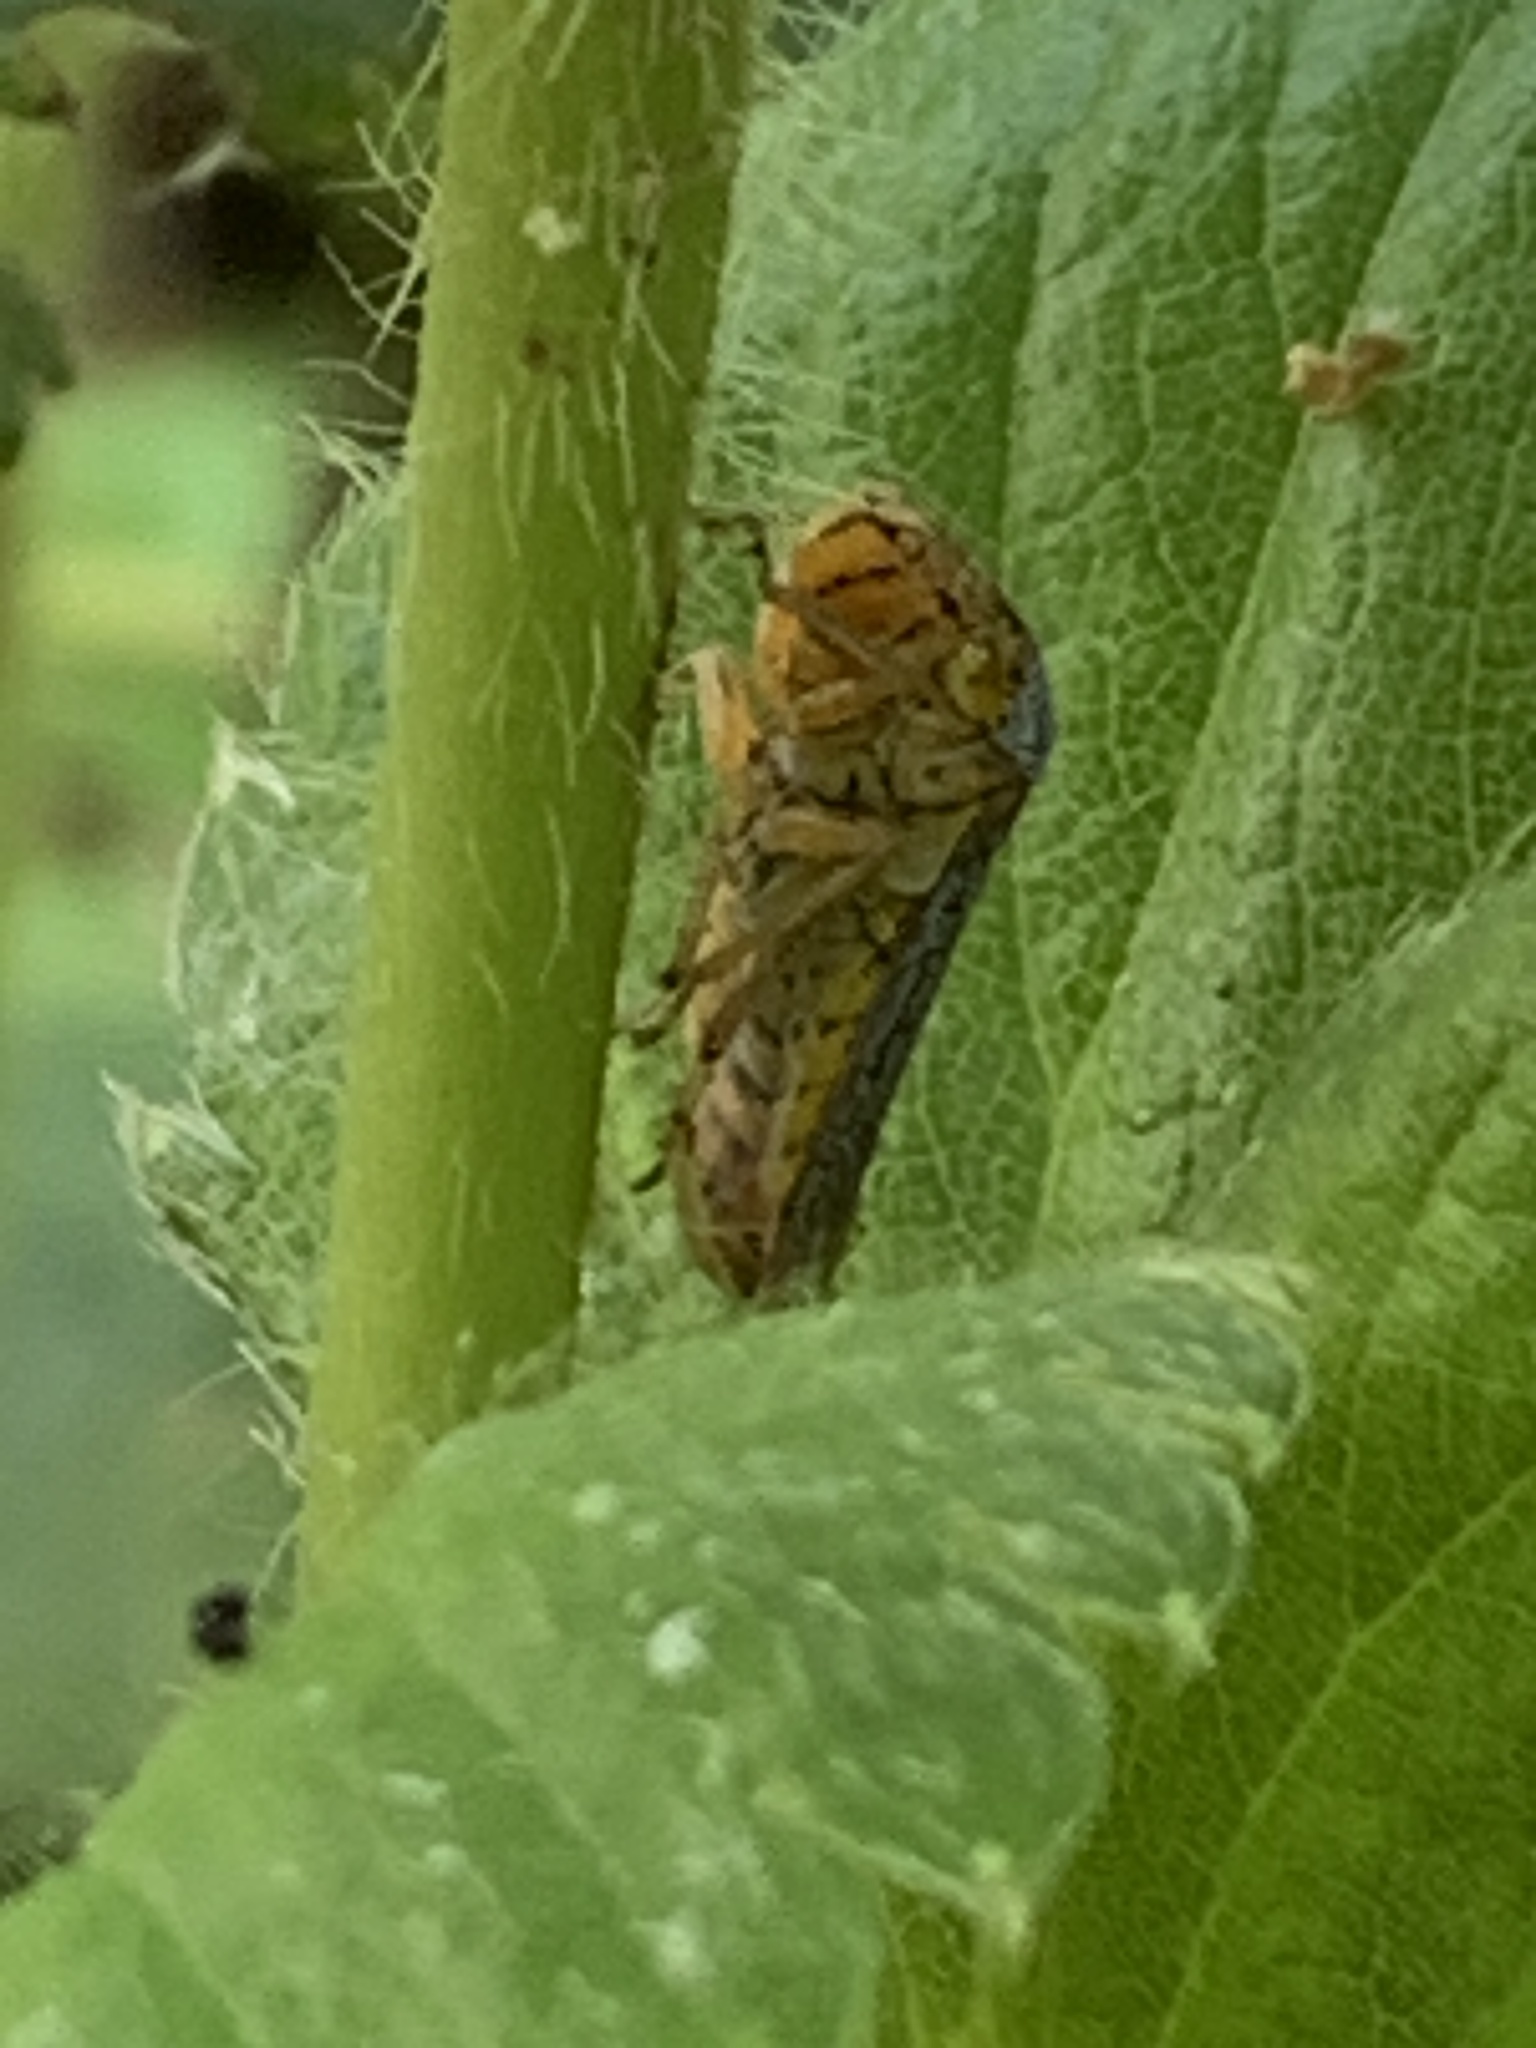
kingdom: Animalia
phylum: Arthropoda
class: Insecta
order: Hemiptera
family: Cicadellidae
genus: Oncometopia
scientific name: Oncometopia orbona
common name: Broad-headed sharpshooter
